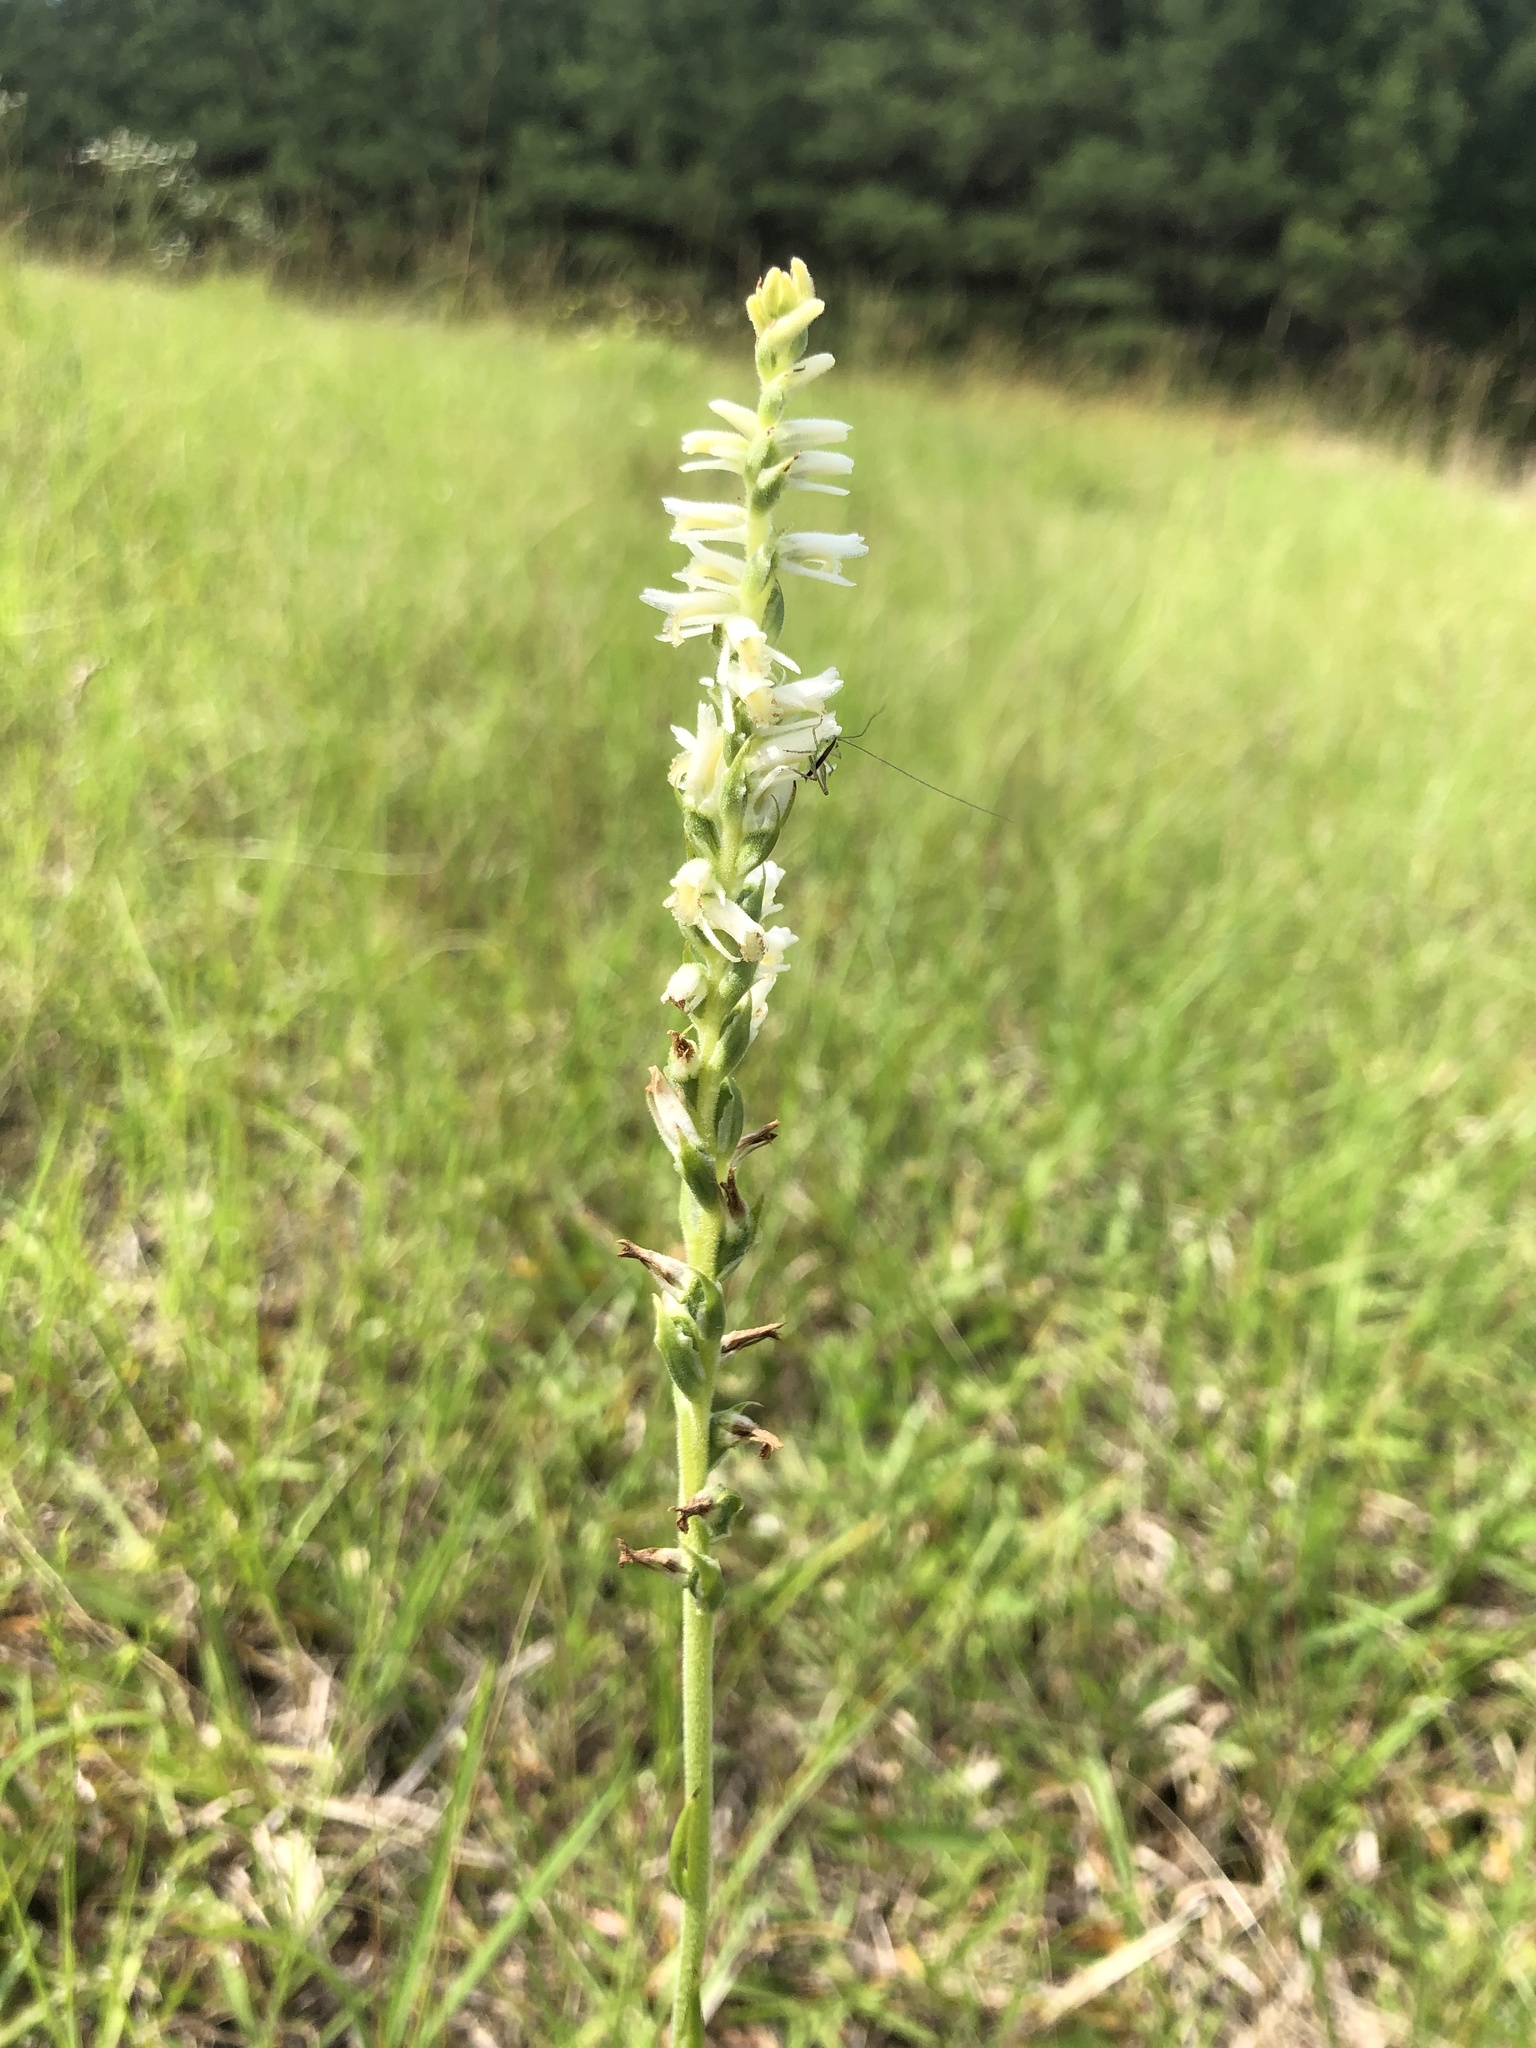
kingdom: Plantae
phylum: Tracheophyta
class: Liliopsida
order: Asparagales
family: Orchidaceae
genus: Spiranthes
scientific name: Spiranthes vernalis
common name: Spring ladies'-tresses
